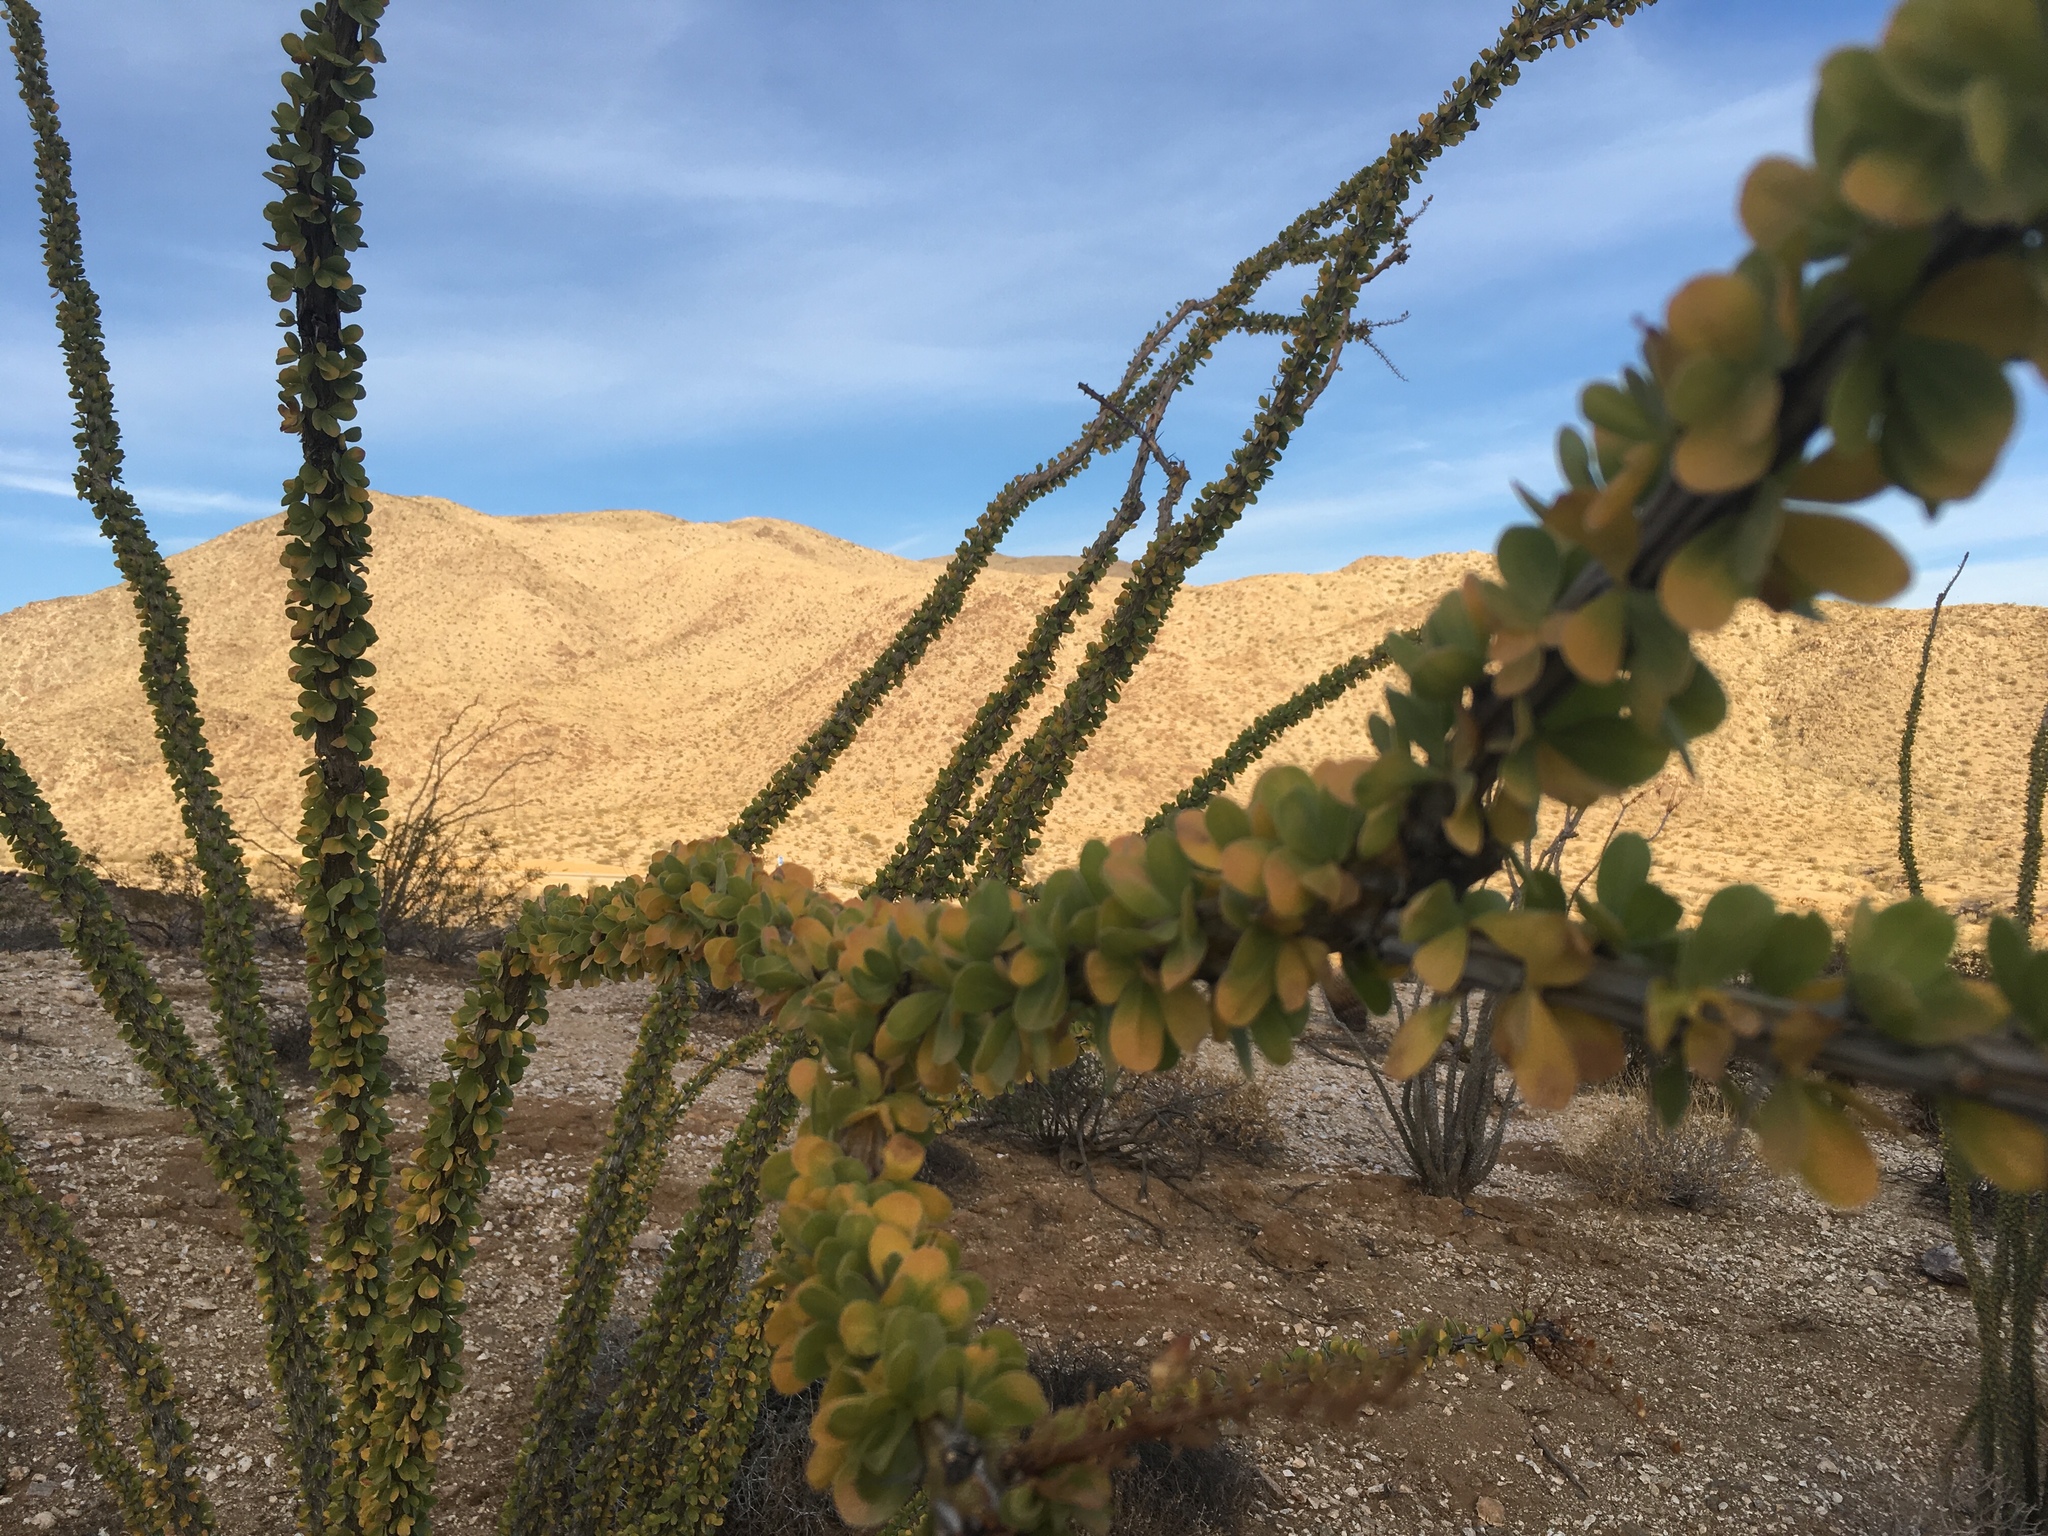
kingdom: Plantae
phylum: Tracheophyta
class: Magnoliopsida
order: Ericales
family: Fouquieriaceae
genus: Fouquieria
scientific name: Fouquieria splendens
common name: Vine-cactus
